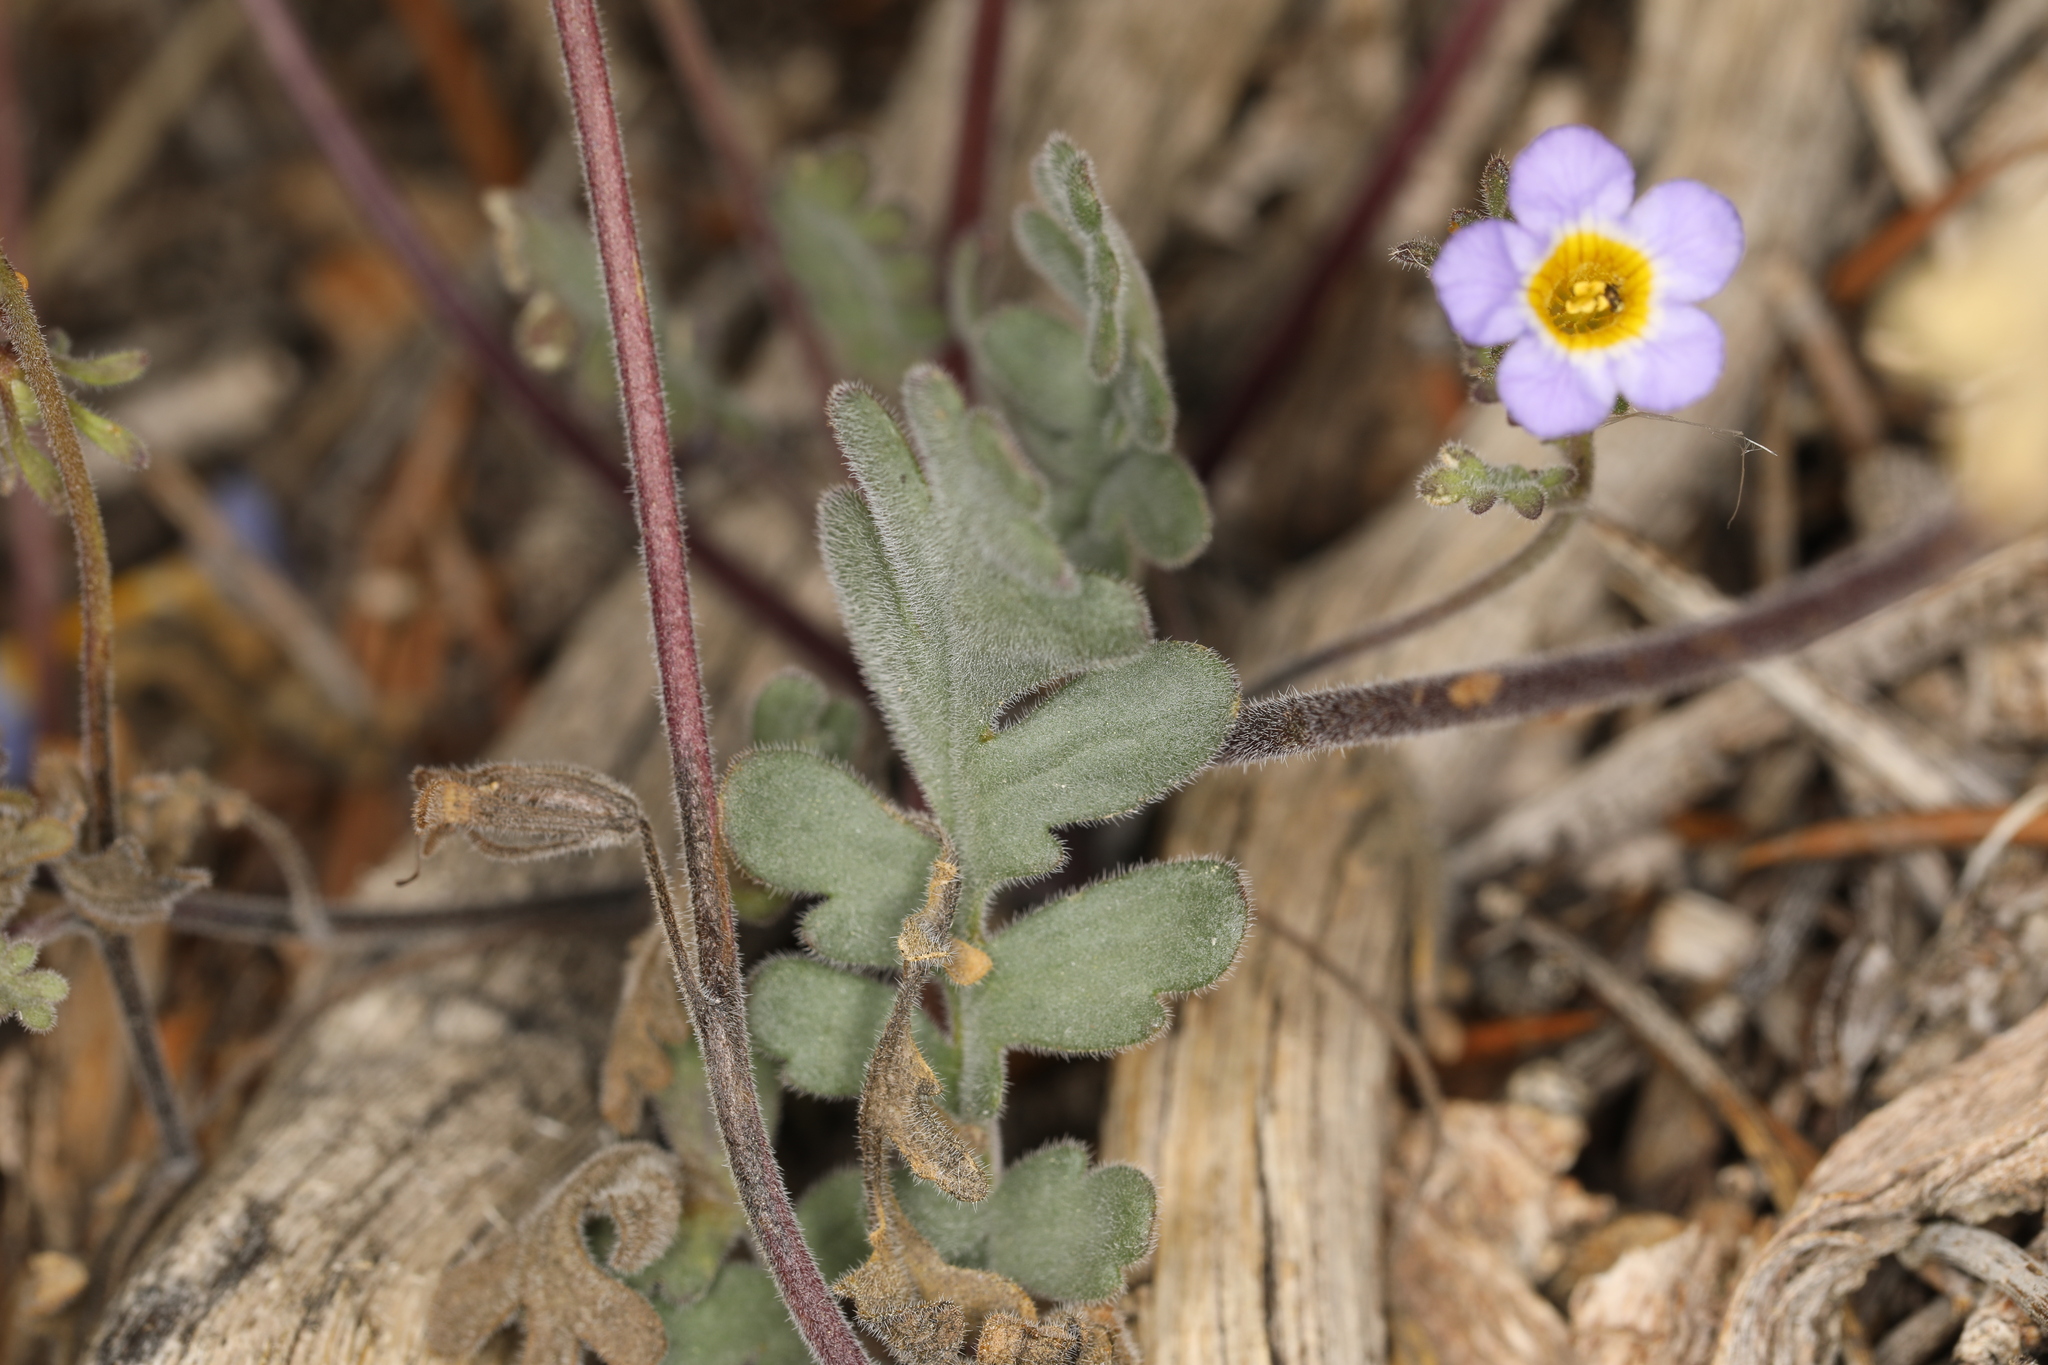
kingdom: Plantae
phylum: Tracheophyta
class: Magnoliopsida
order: Boraginales
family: Hydrophyllaceae
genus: Phacelia
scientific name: Phacelia fremontii
